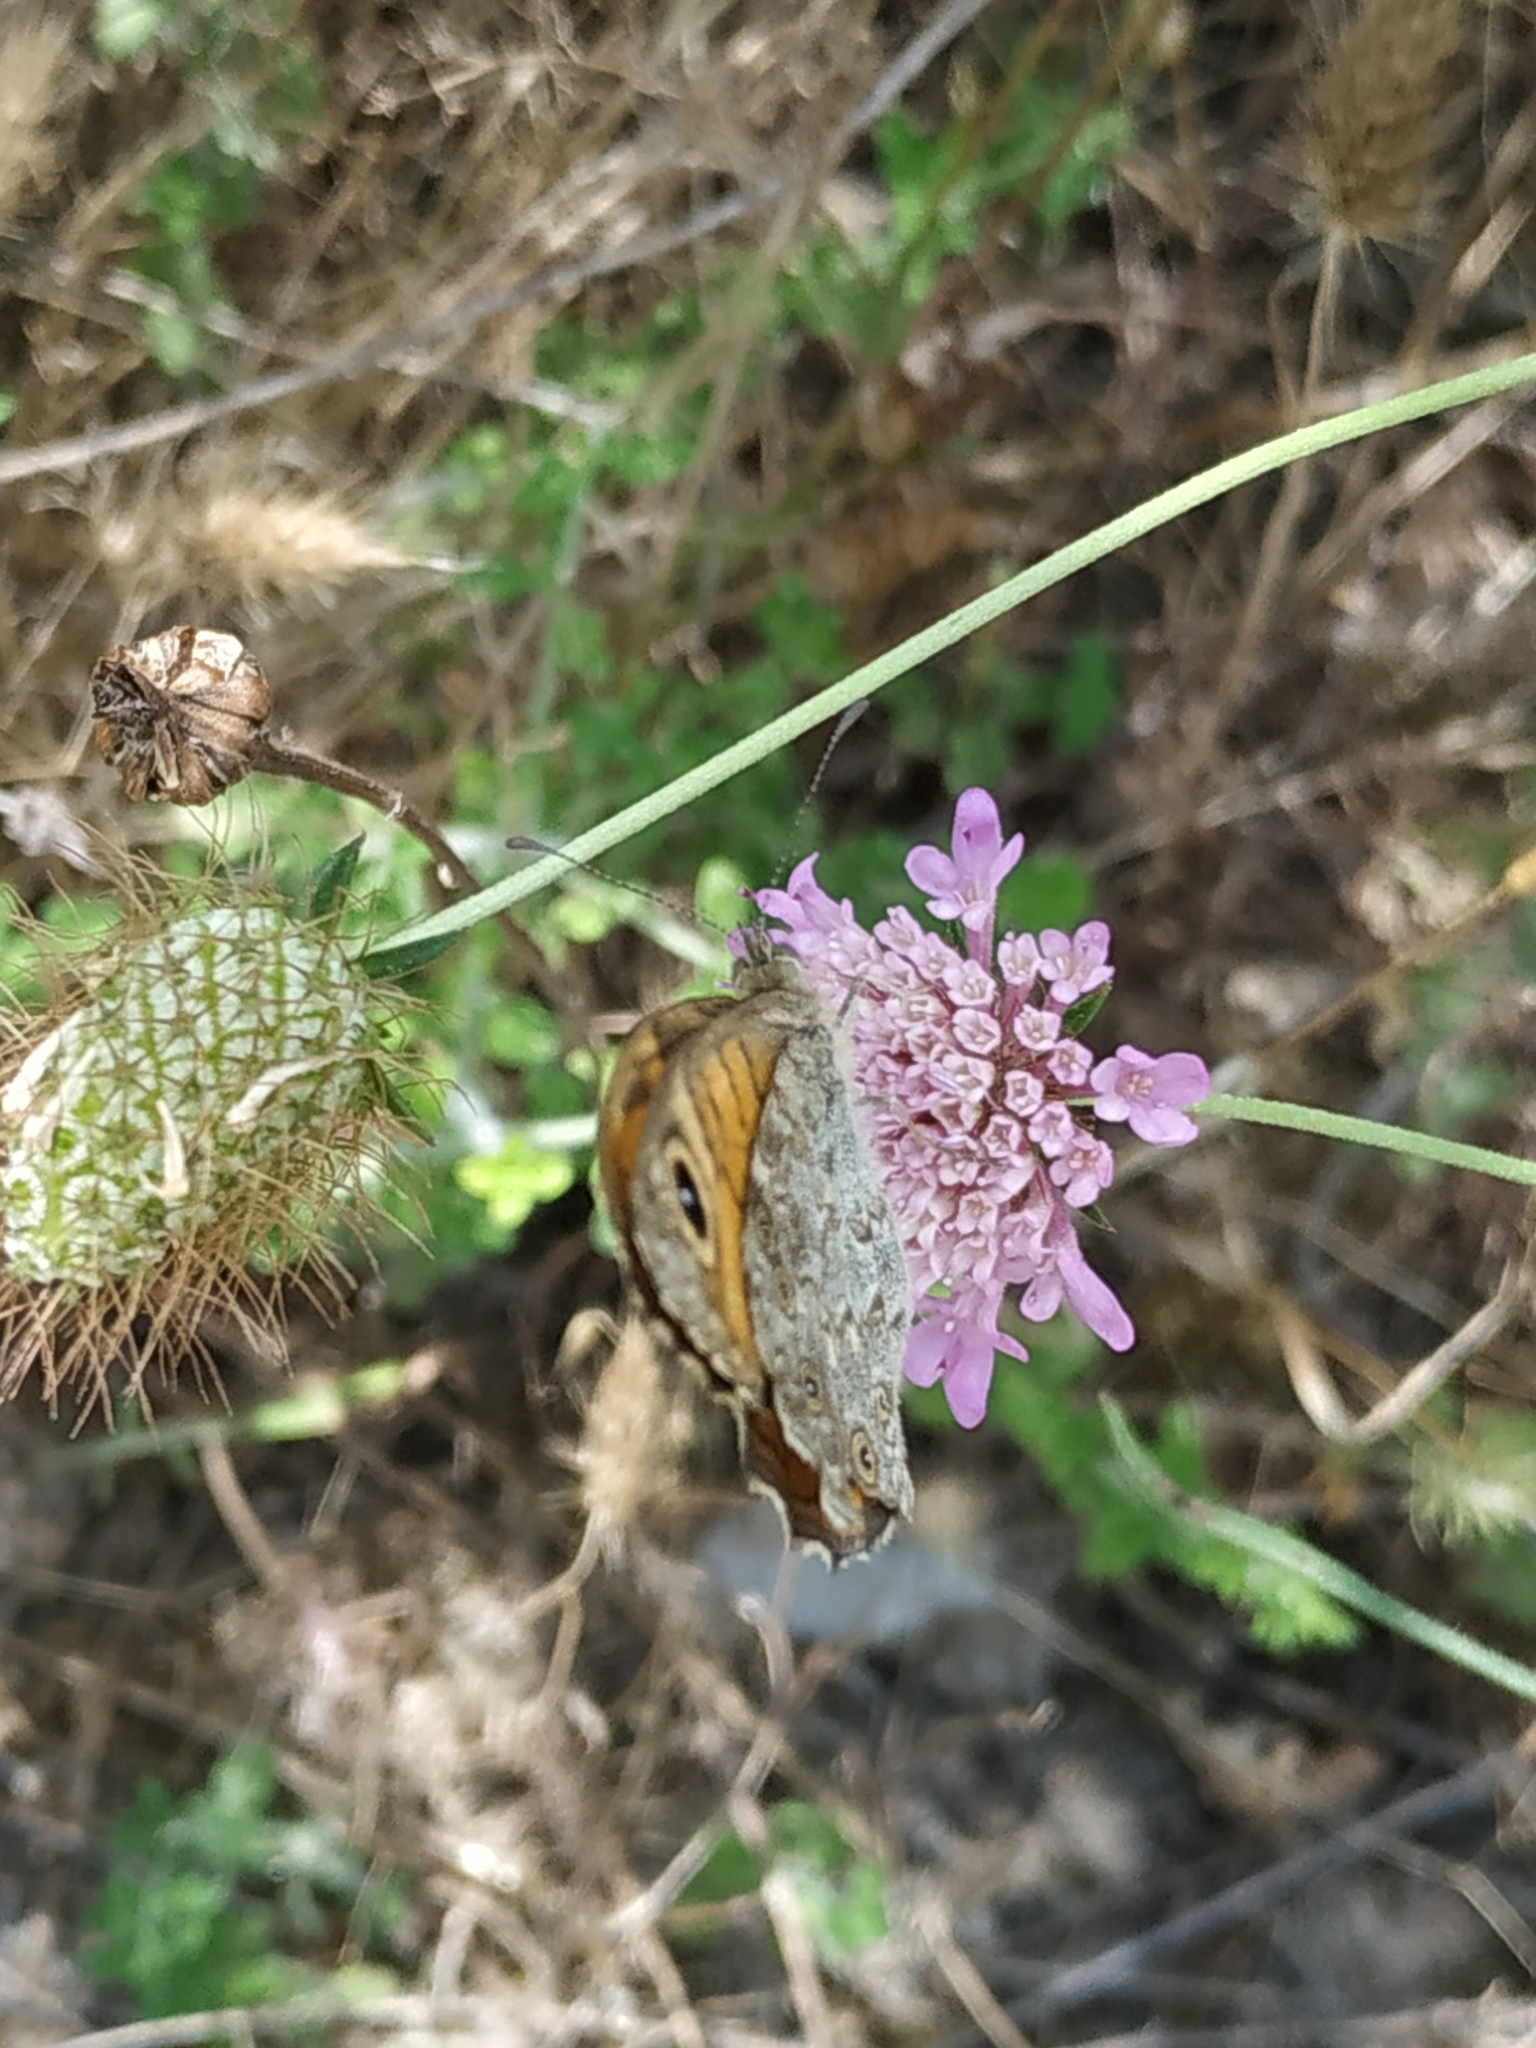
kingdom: Animalia
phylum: Arthropoda
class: Insecta
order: Lepidoptera
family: Nymphalidae
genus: Pararge
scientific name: Pararge Lasiommata megera
